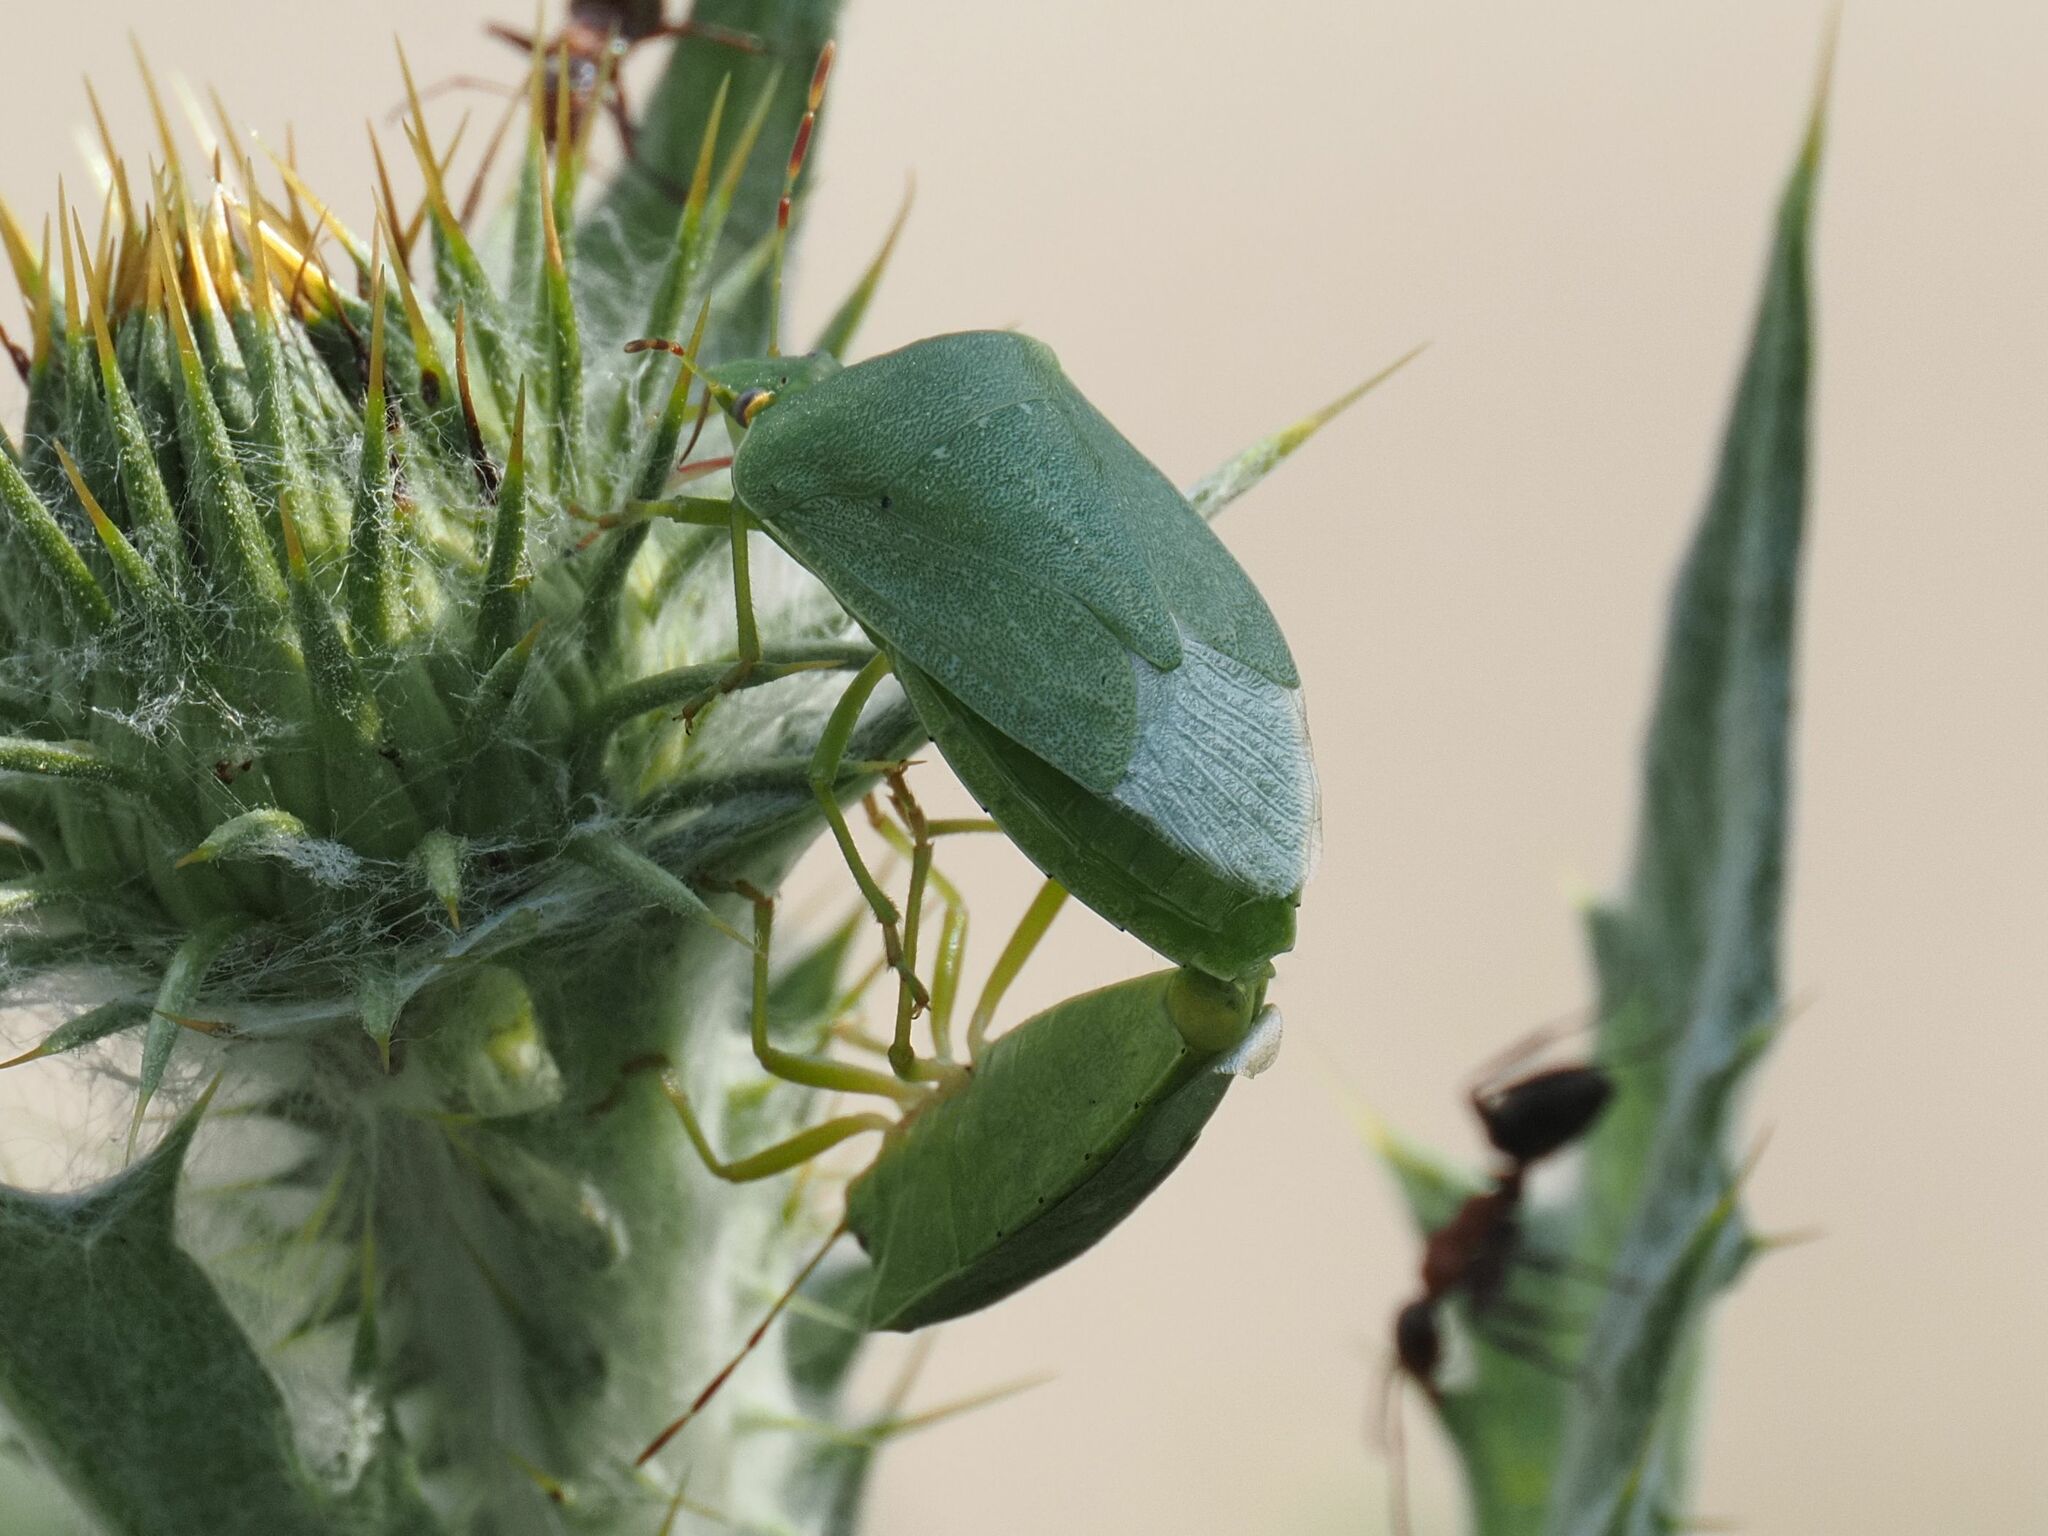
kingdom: Animalia
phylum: Arthropoda
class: Insecta
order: Hemiptera
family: Pentatomidae
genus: Nezara
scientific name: Nezara viridula
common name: Southern green stink bug
